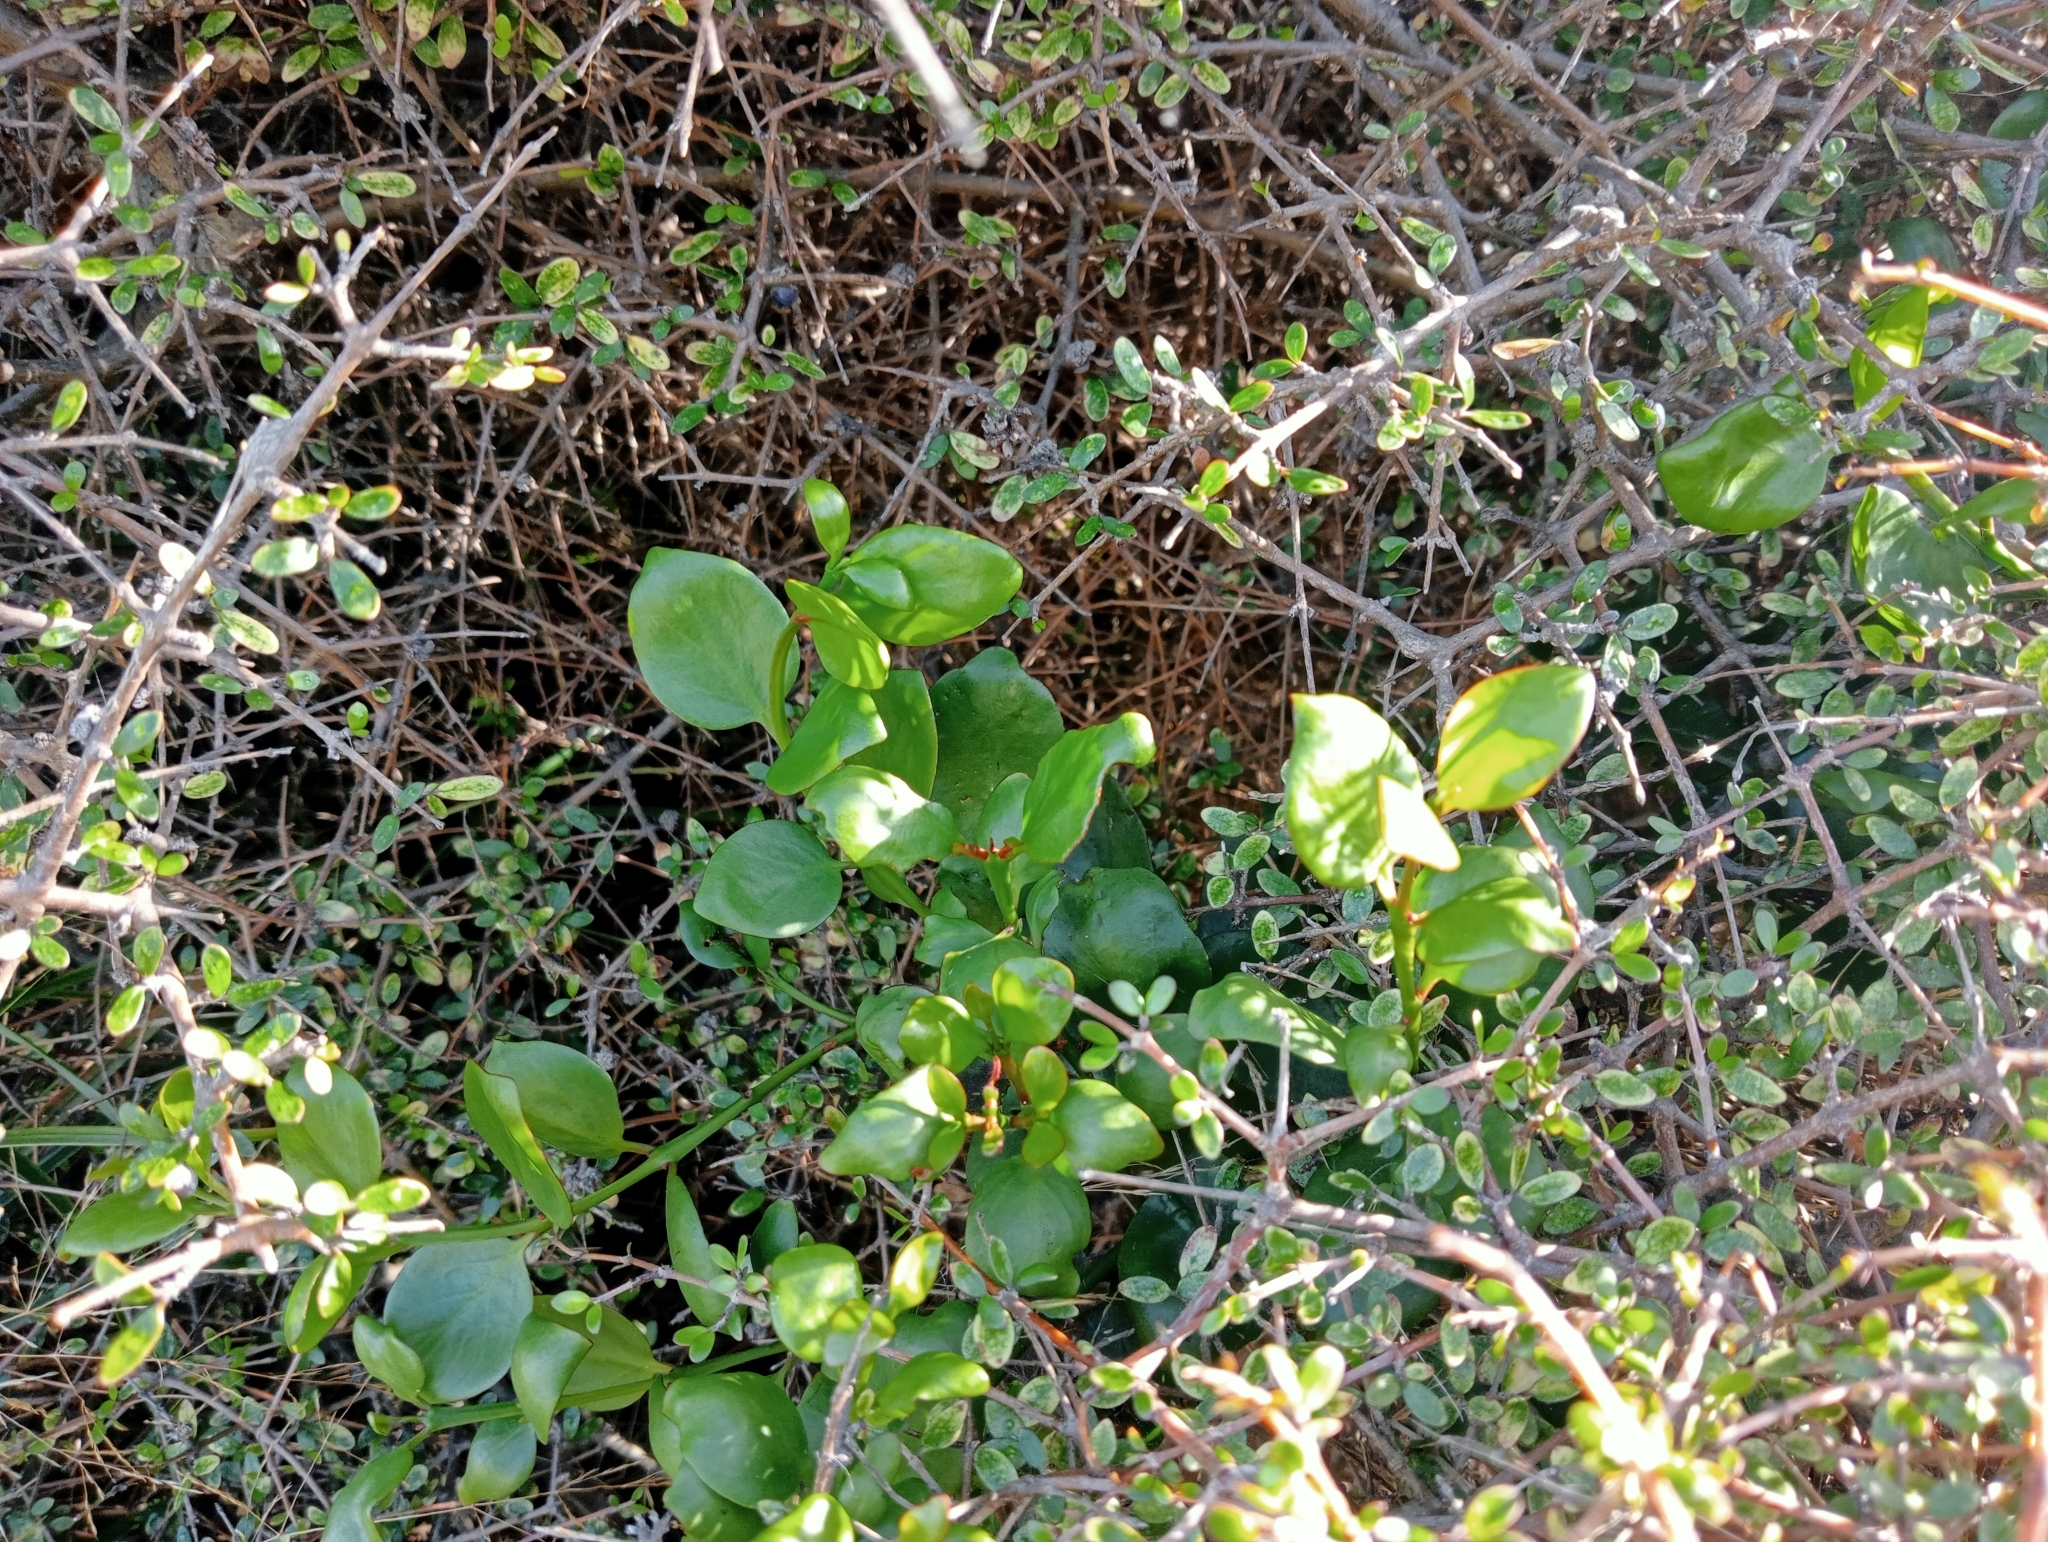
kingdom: Plantae
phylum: Tracheophyta
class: Magnoliopsida
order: Santalales
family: Loranthaceae
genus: Ileostylus
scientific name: Ileostylus micranthus
